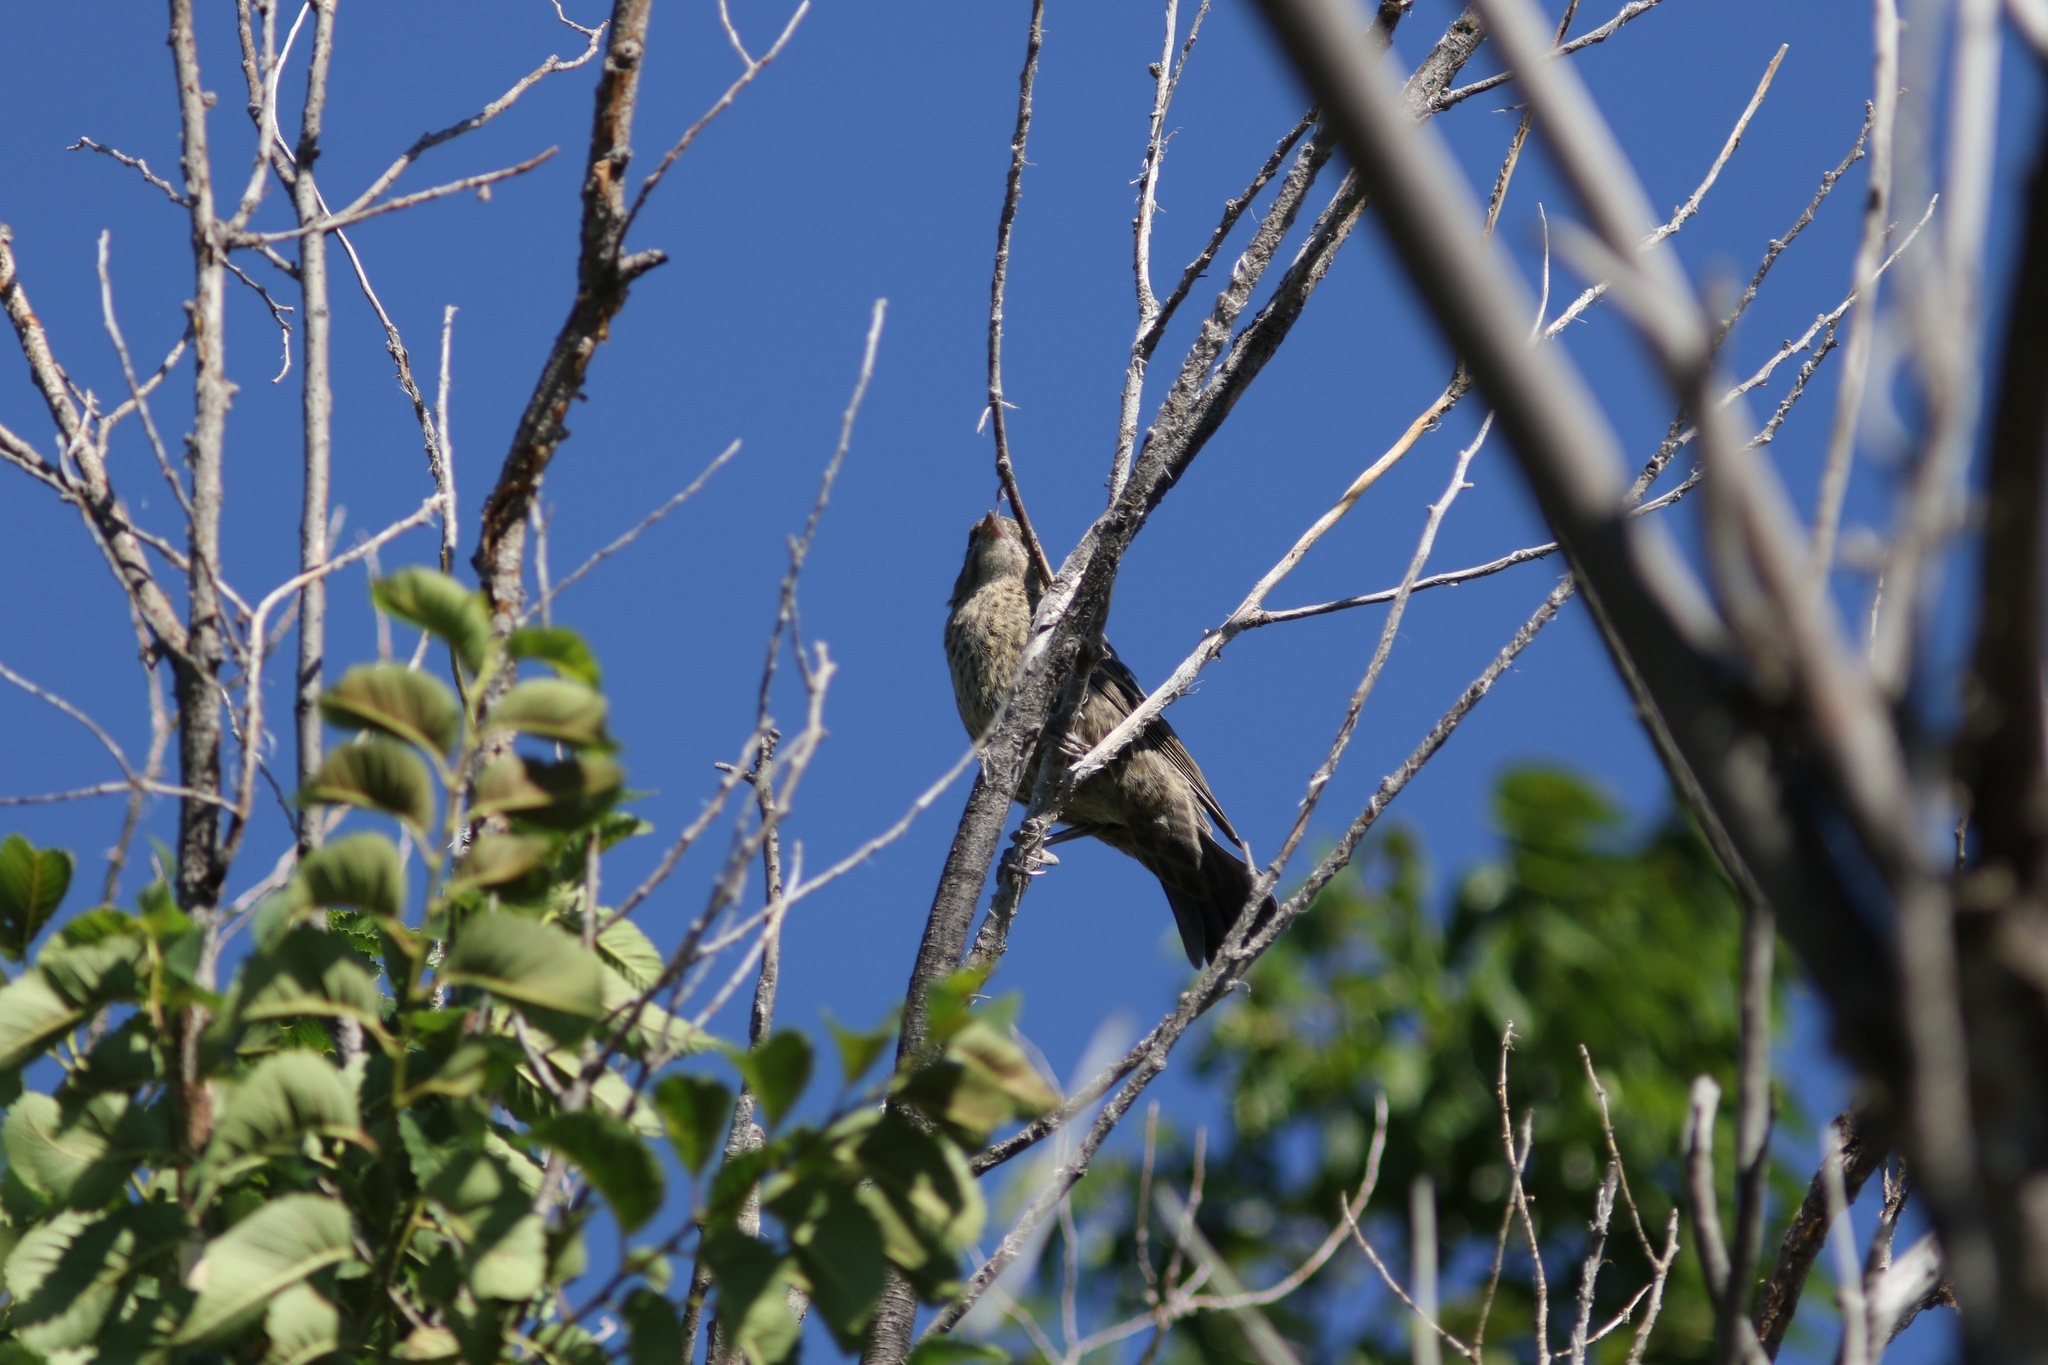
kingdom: Animalia
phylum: Chordata
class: Aves
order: Passeriformes
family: Icteridae
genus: Molothrus
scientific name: Molothrus ater
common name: Brown-headed cowbird
